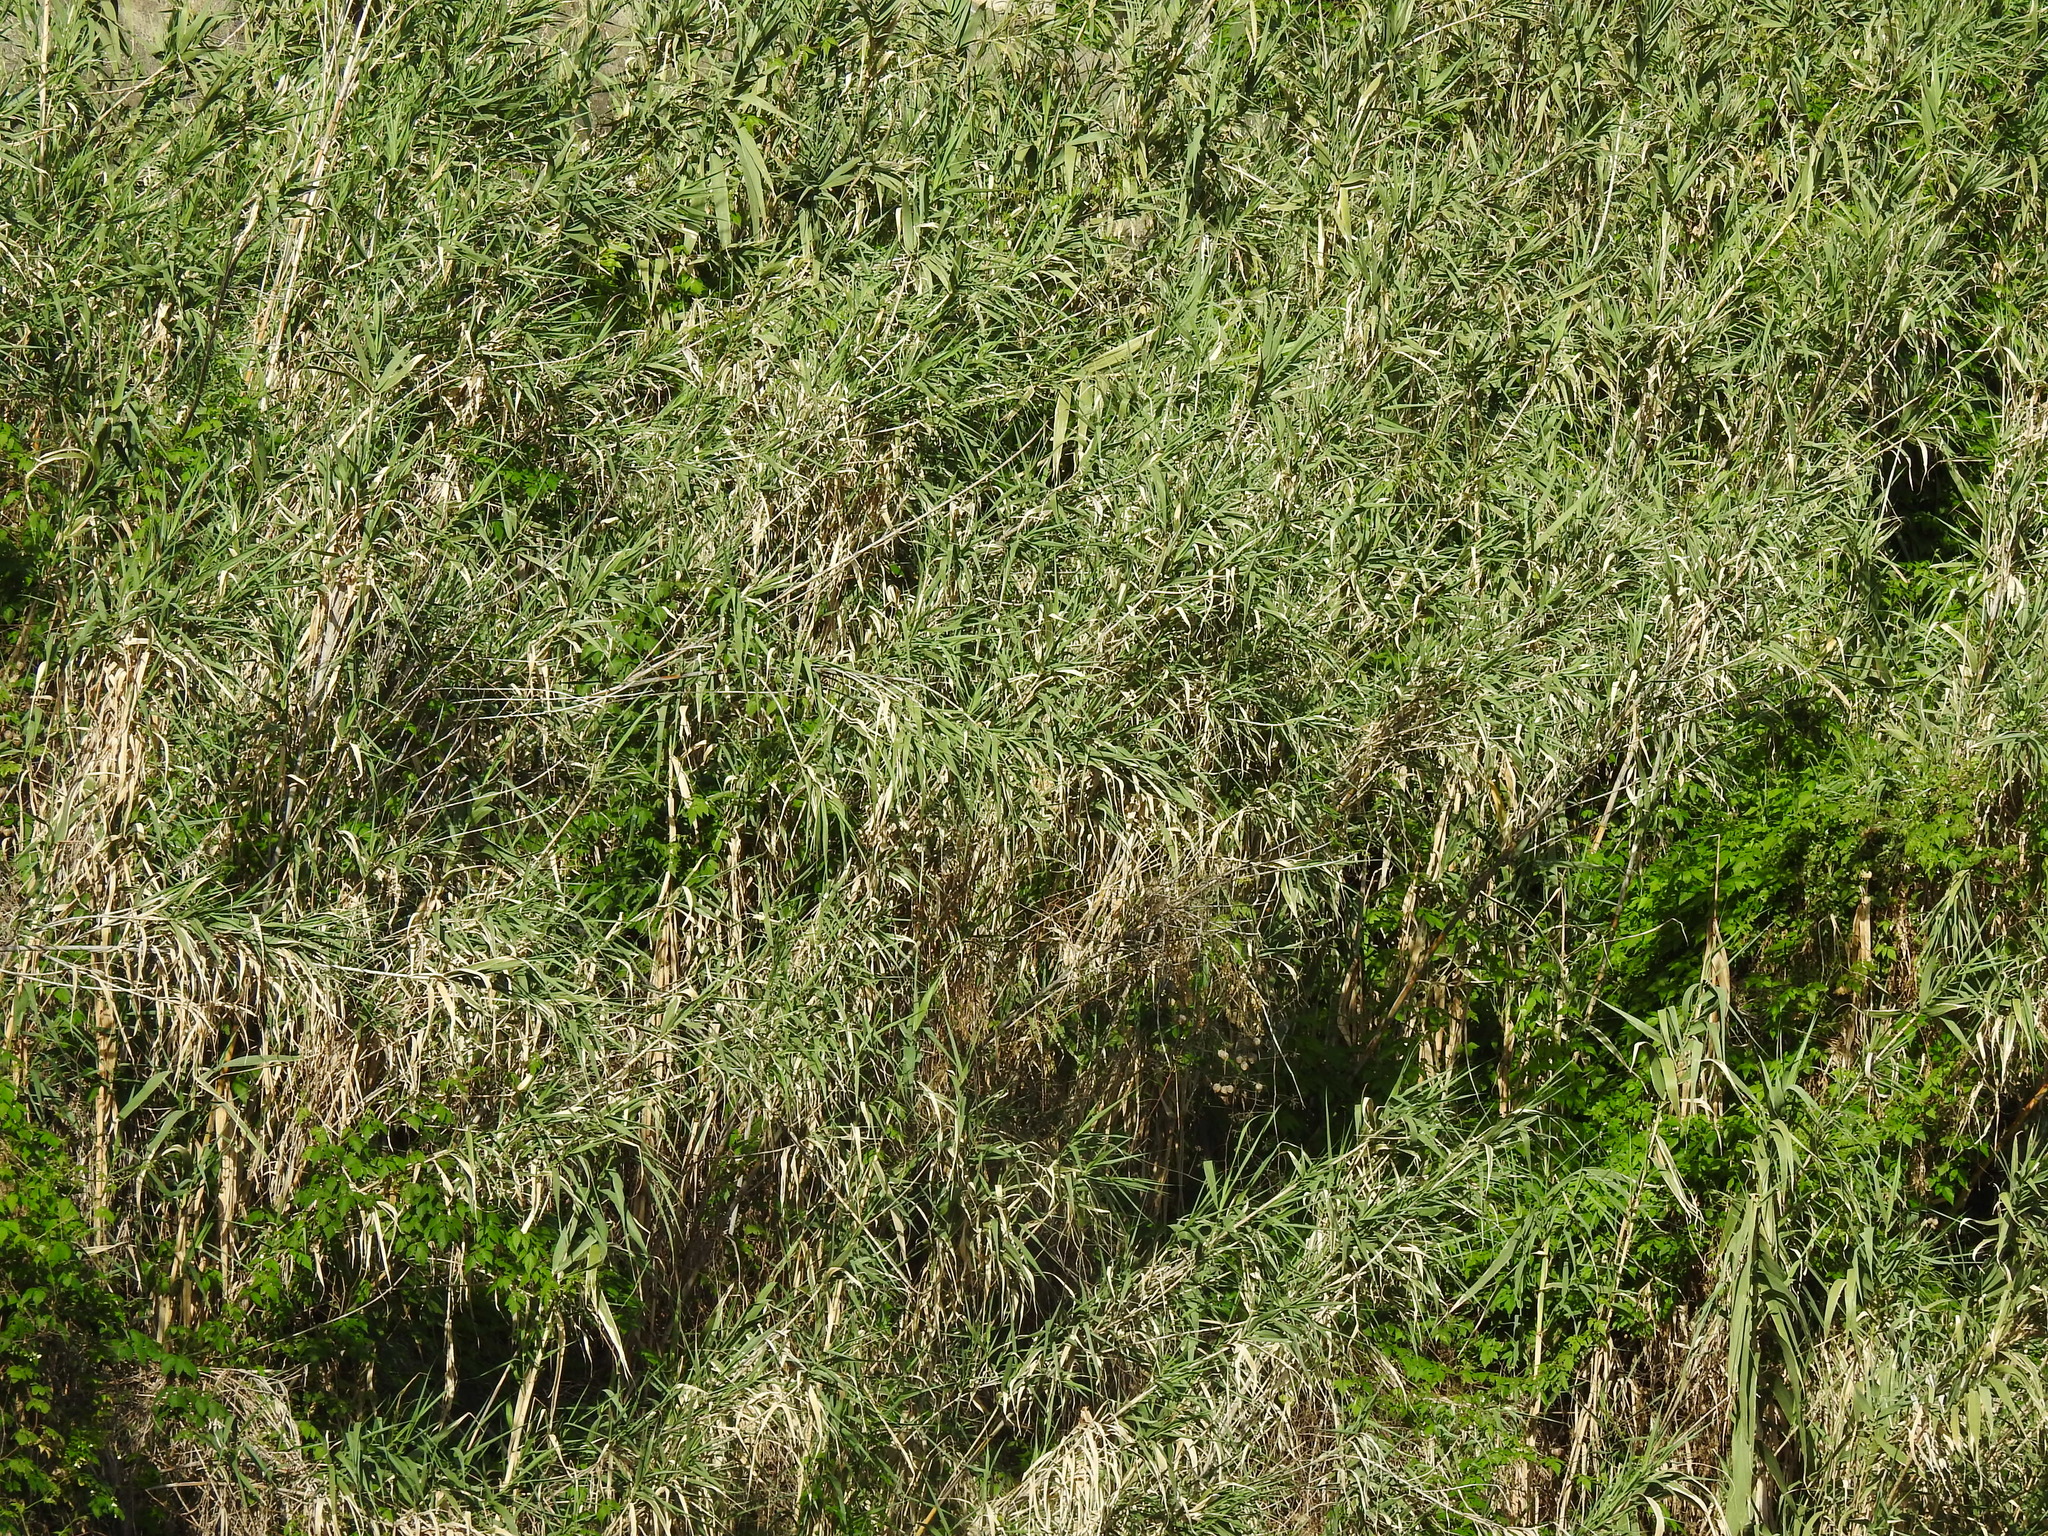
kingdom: Plantae
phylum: Tracheophyta
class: Liliopsida
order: Poales
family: Poaceae
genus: Arundo
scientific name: Arundo donax
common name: Giant reed
